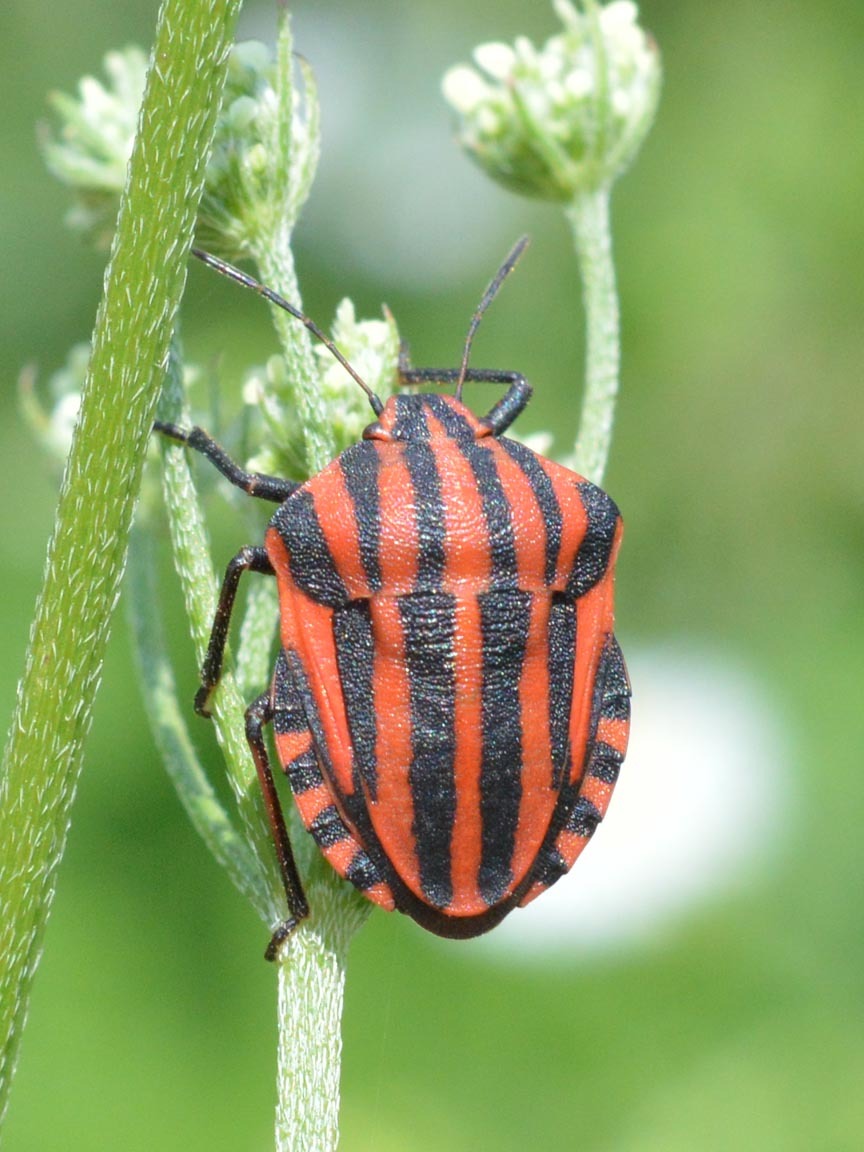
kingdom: Animalia
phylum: Arthropoda
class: Insecta
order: Hemiptera
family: Pentatomidae
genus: Graphosoma
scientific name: Graphosoma italicum
